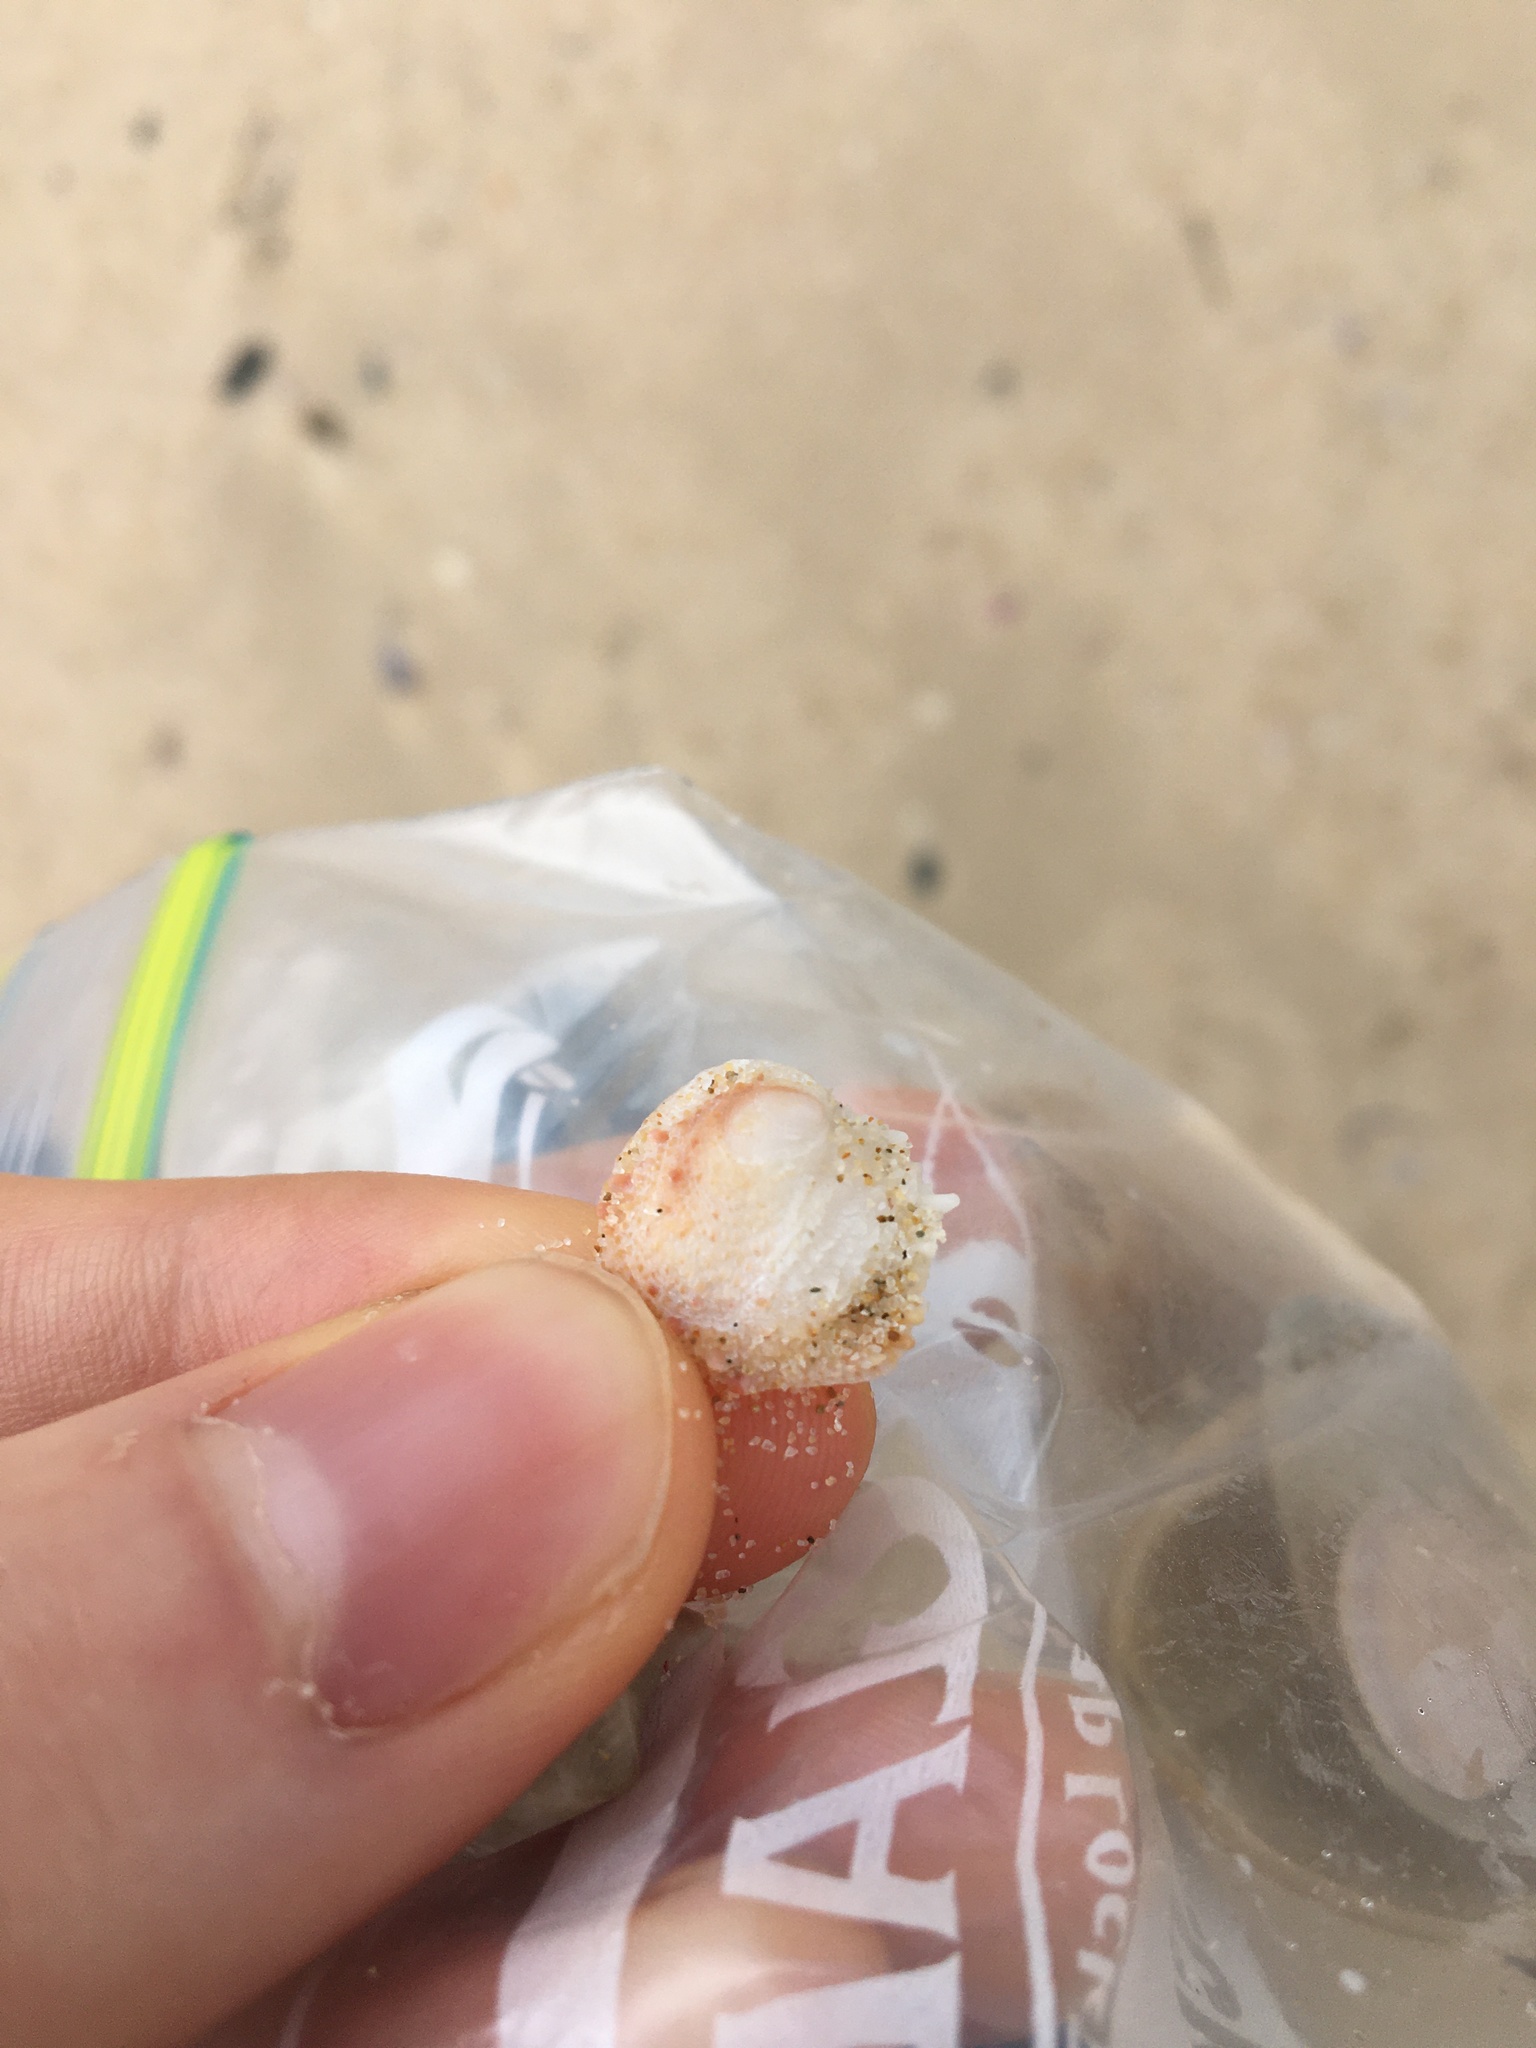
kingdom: Animalia
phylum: Mollusca
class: Bivalvia
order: Venerida
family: Chamidae
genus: Chama
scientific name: Chama asperella
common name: Mollusca
